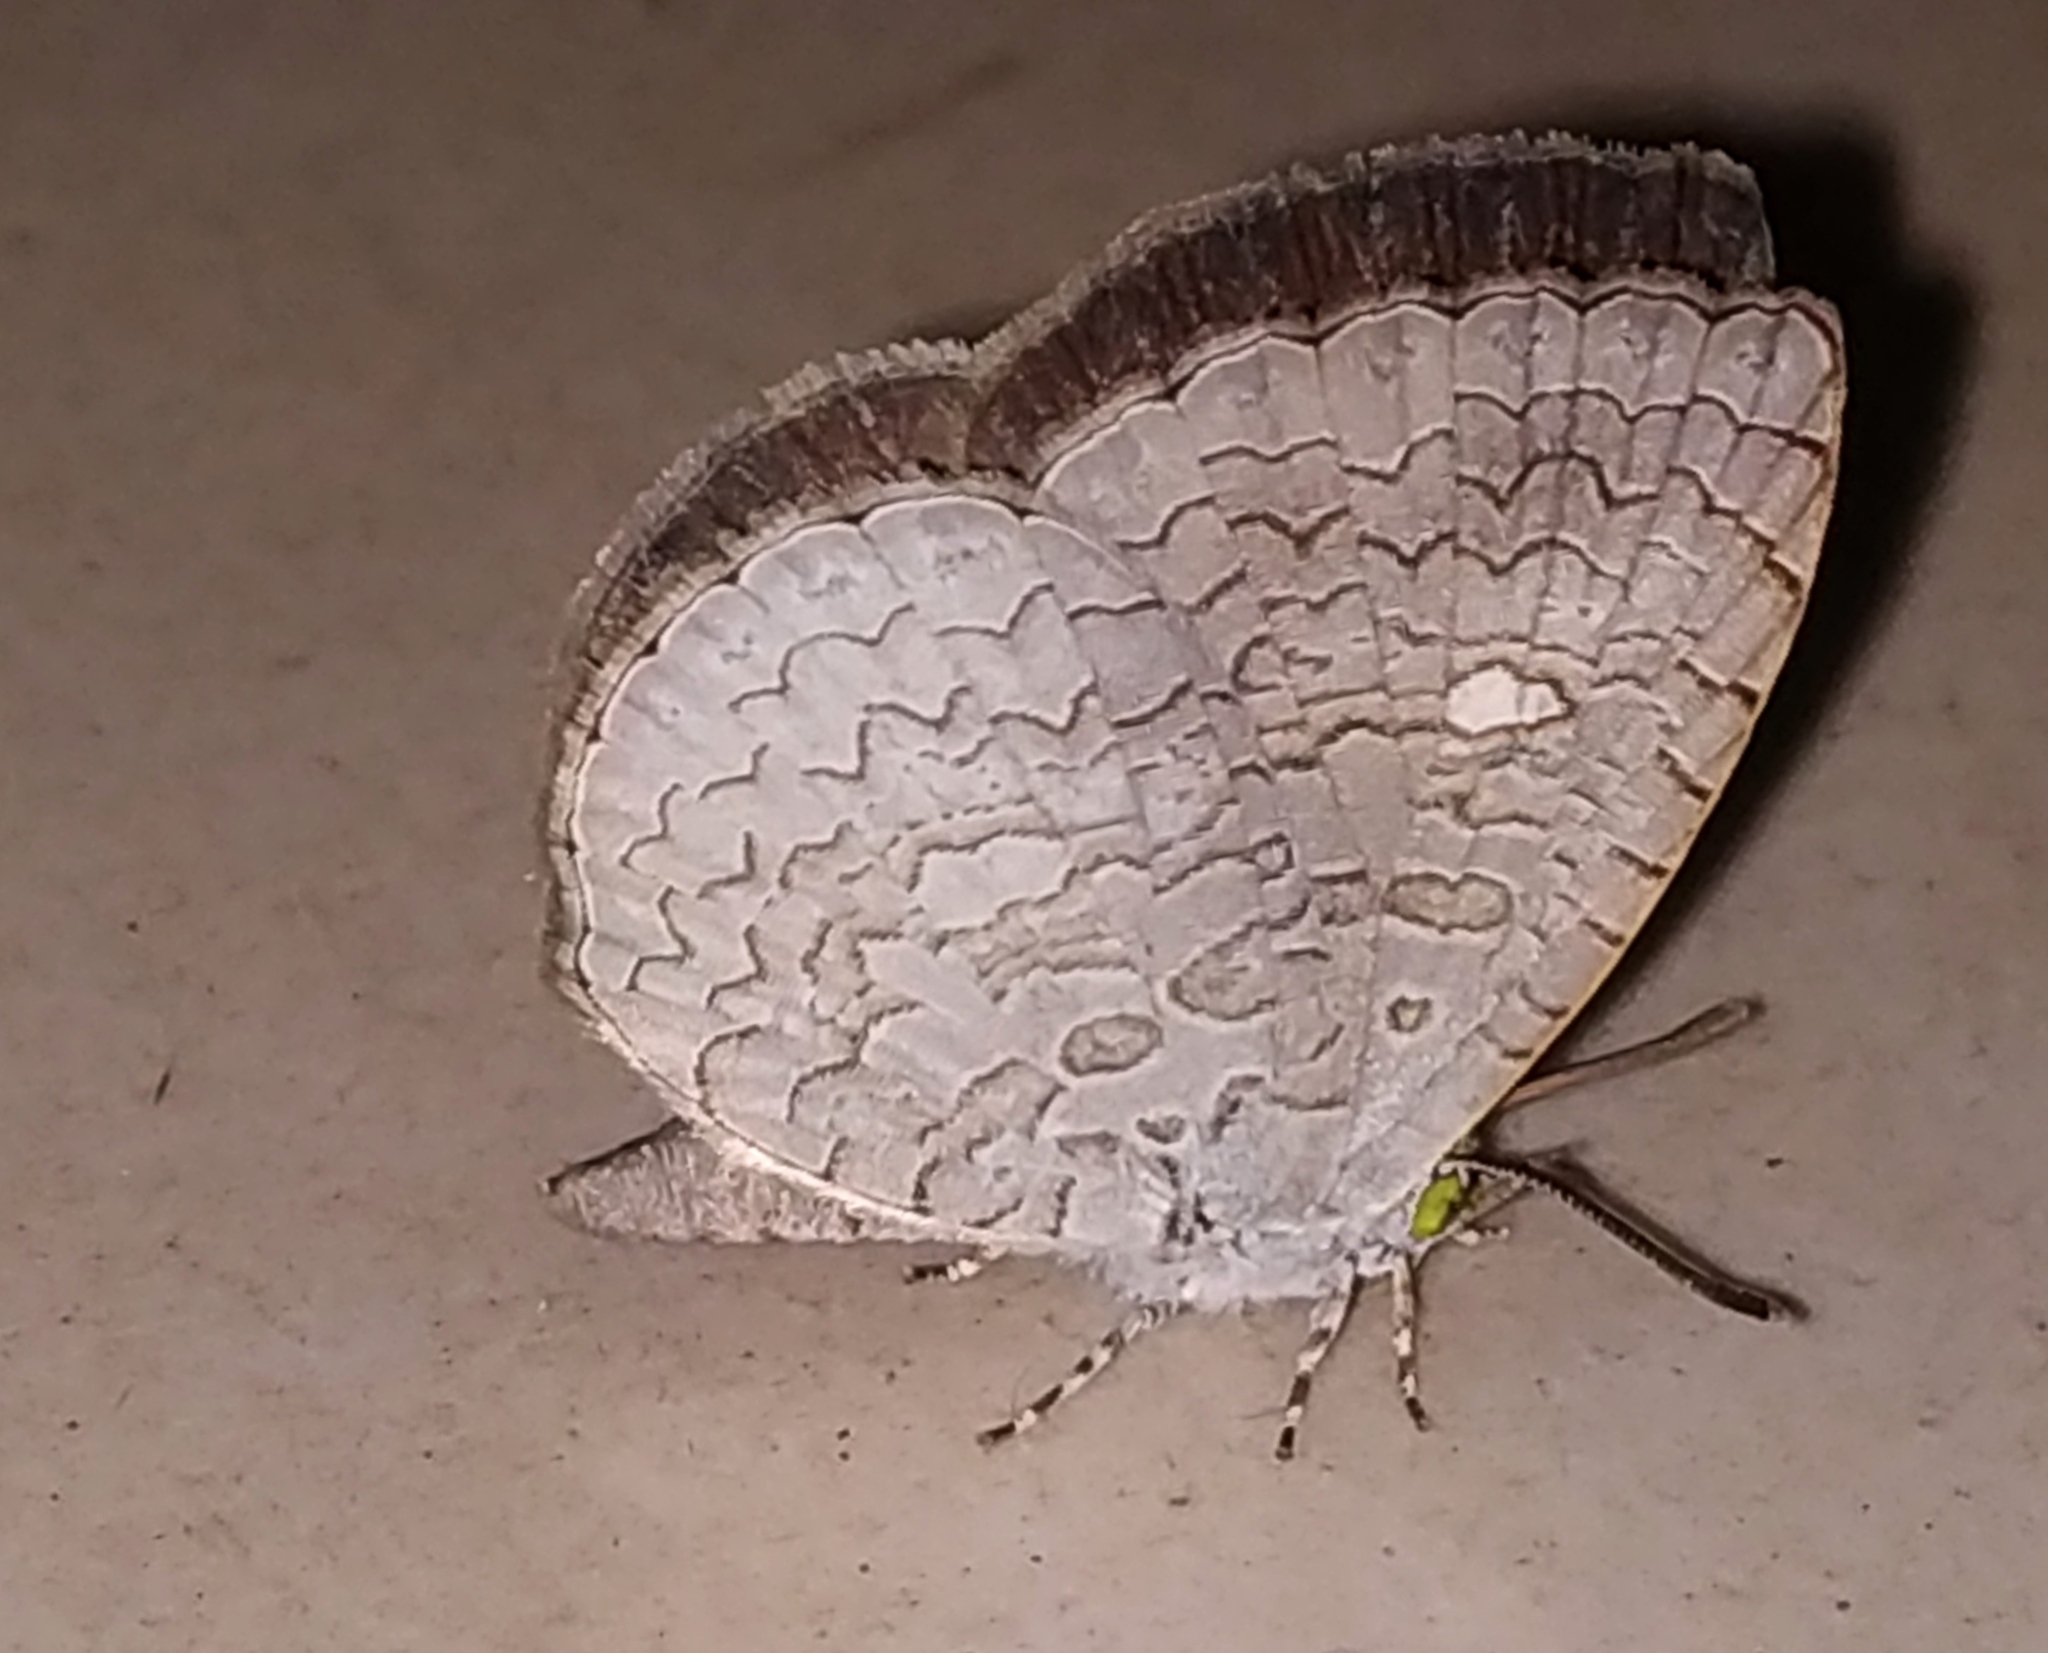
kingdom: Animalia
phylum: Arthropoda
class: Insecta
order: Lepidoptera
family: Lycaenidae
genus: Spalgis
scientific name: Spalgis epius
